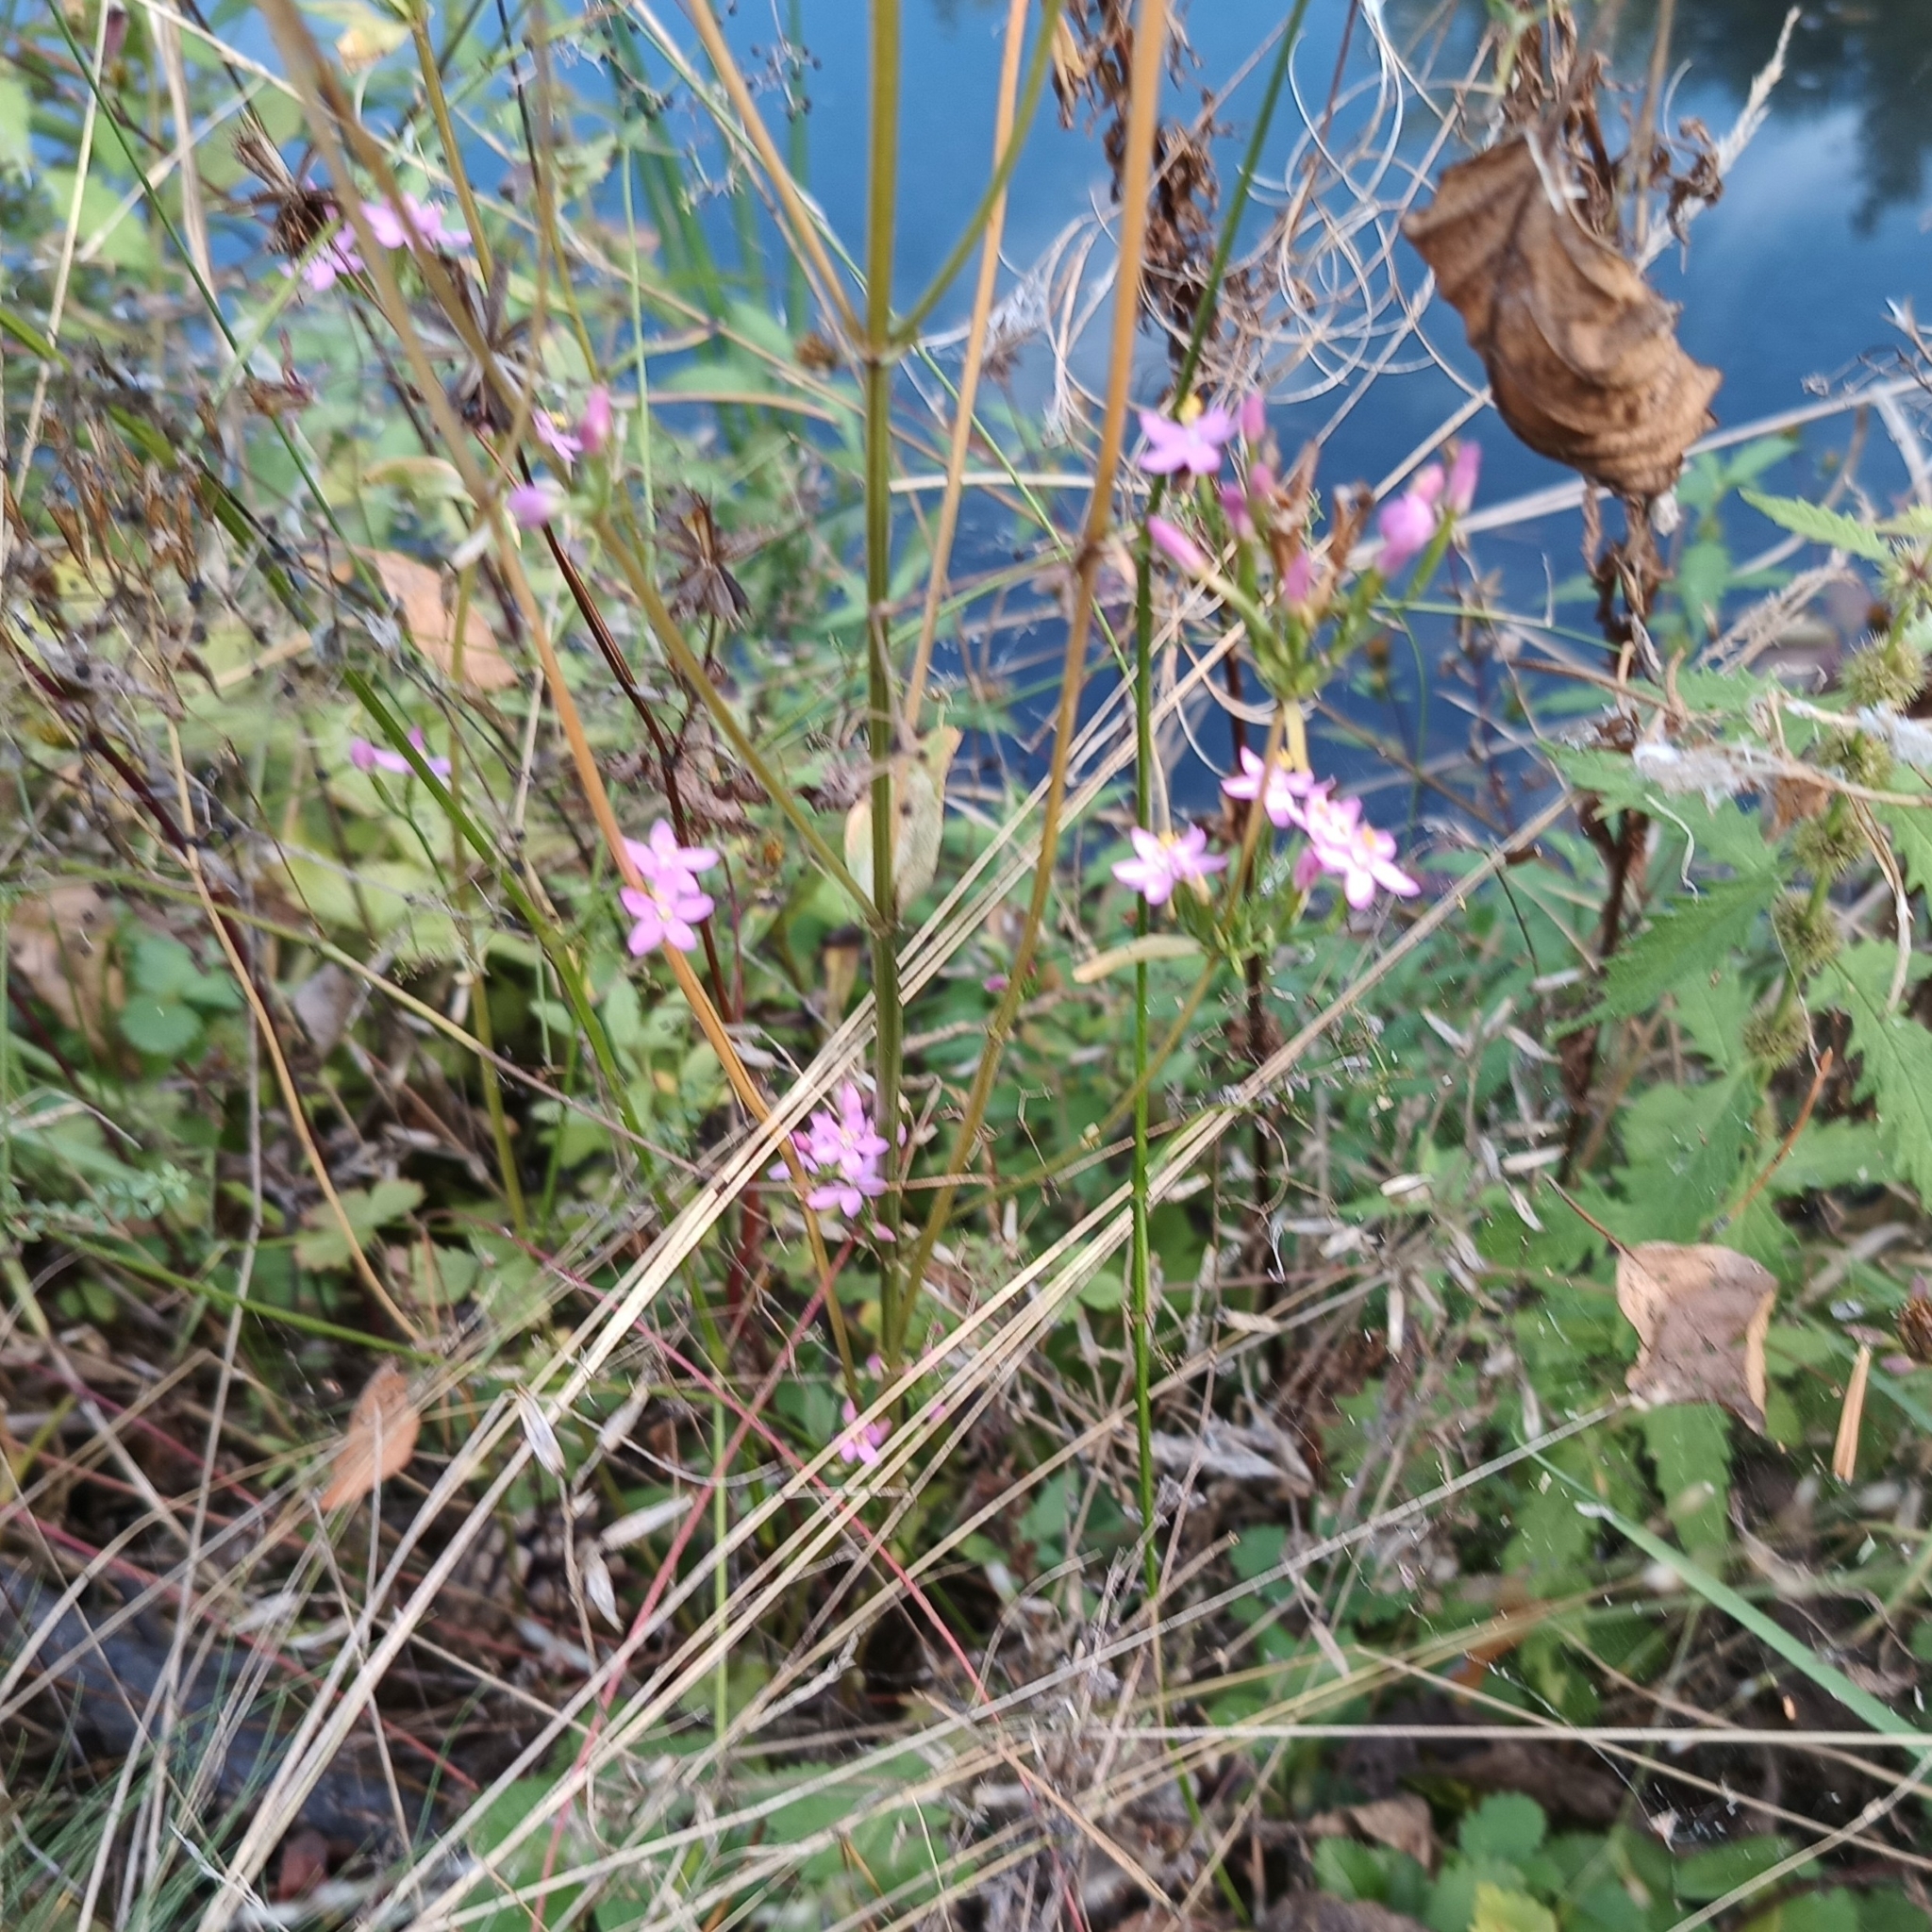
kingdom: Plantae
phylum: Tracheophyta
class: Magnoliopsida
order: Gentianales
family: Gentianaceae
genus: Centaurium
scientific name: Centaurium erythraea
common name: Common centaury
